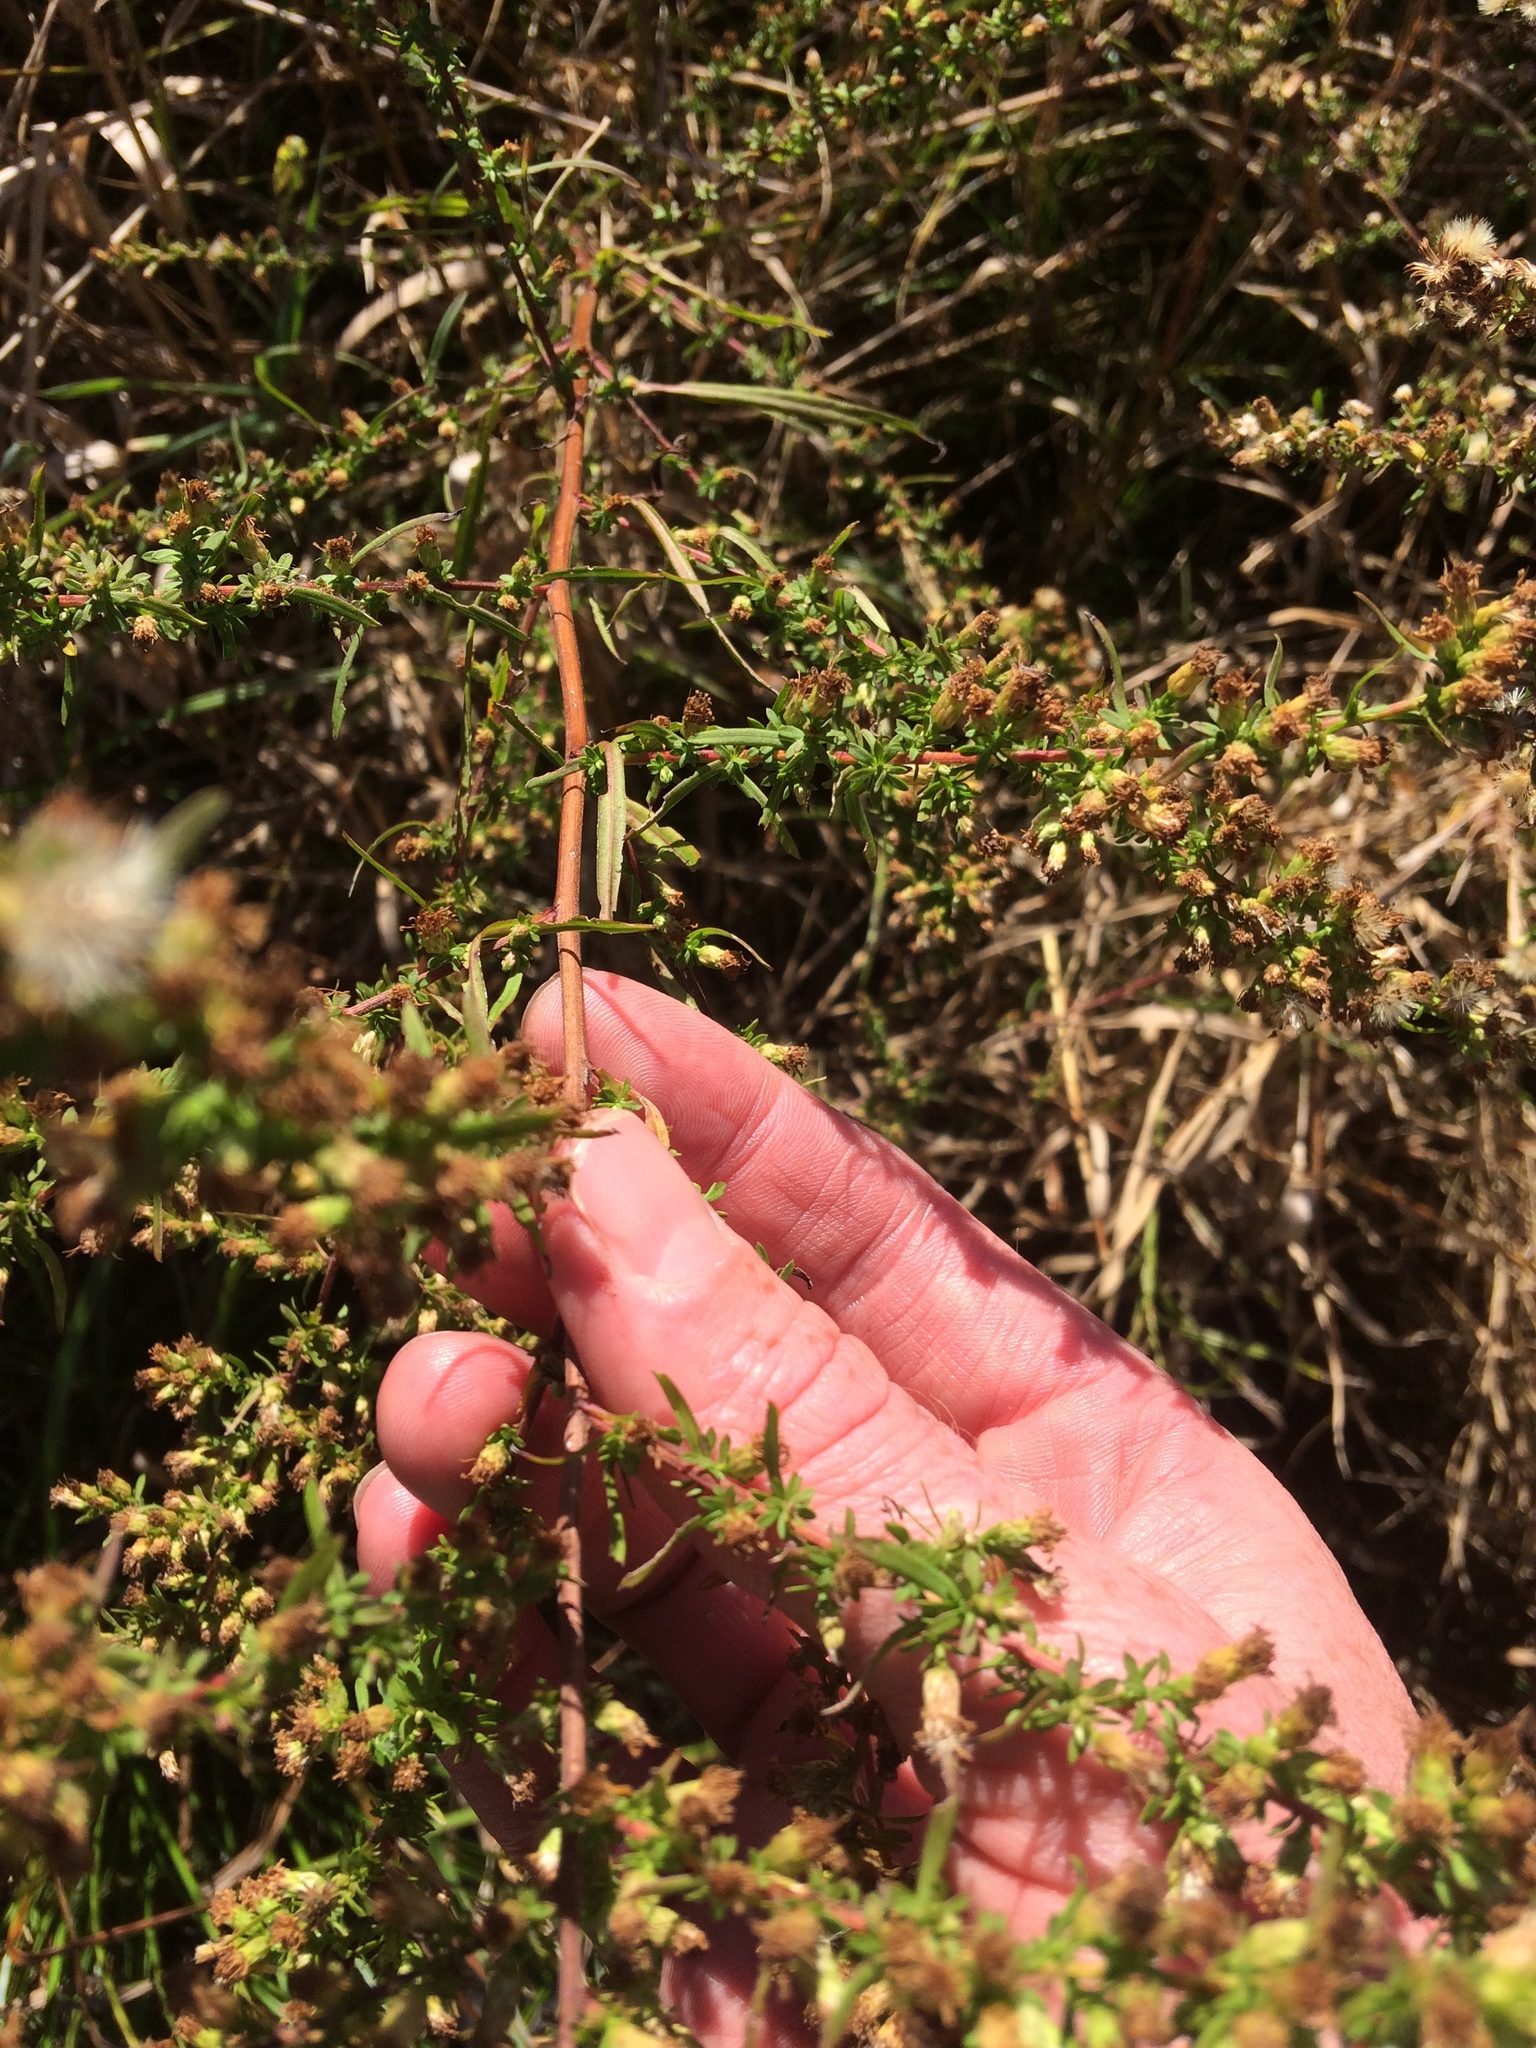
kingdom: Plantae
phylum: Tracheophyta
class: Magnoliopsida
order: Asterales
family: Asteraceae
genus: Symphyotrichum
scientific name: Symphyotrichum racemosum
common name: Small white aster
